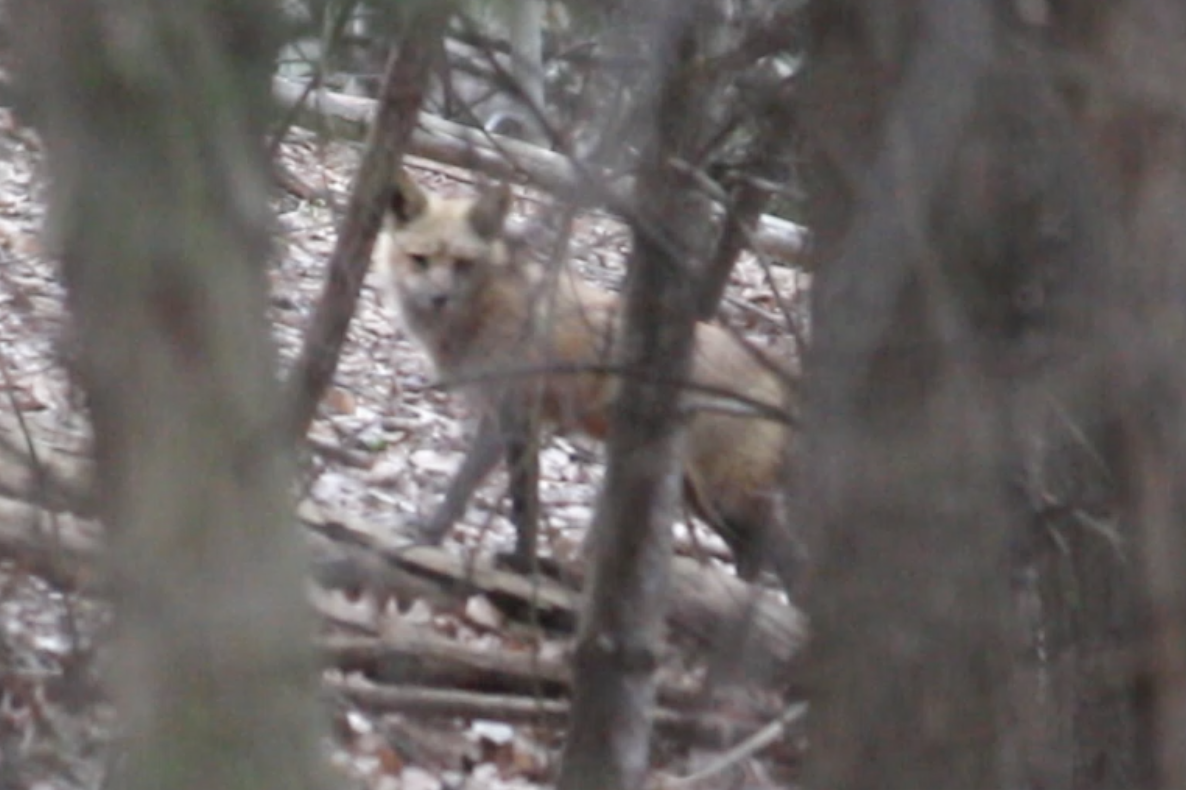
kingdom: Animalia
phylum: Chordata
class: Mammalia
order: Carnivora
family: Canidae
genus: Vulpes
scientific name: Vulpes vulpes
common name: Red fox
